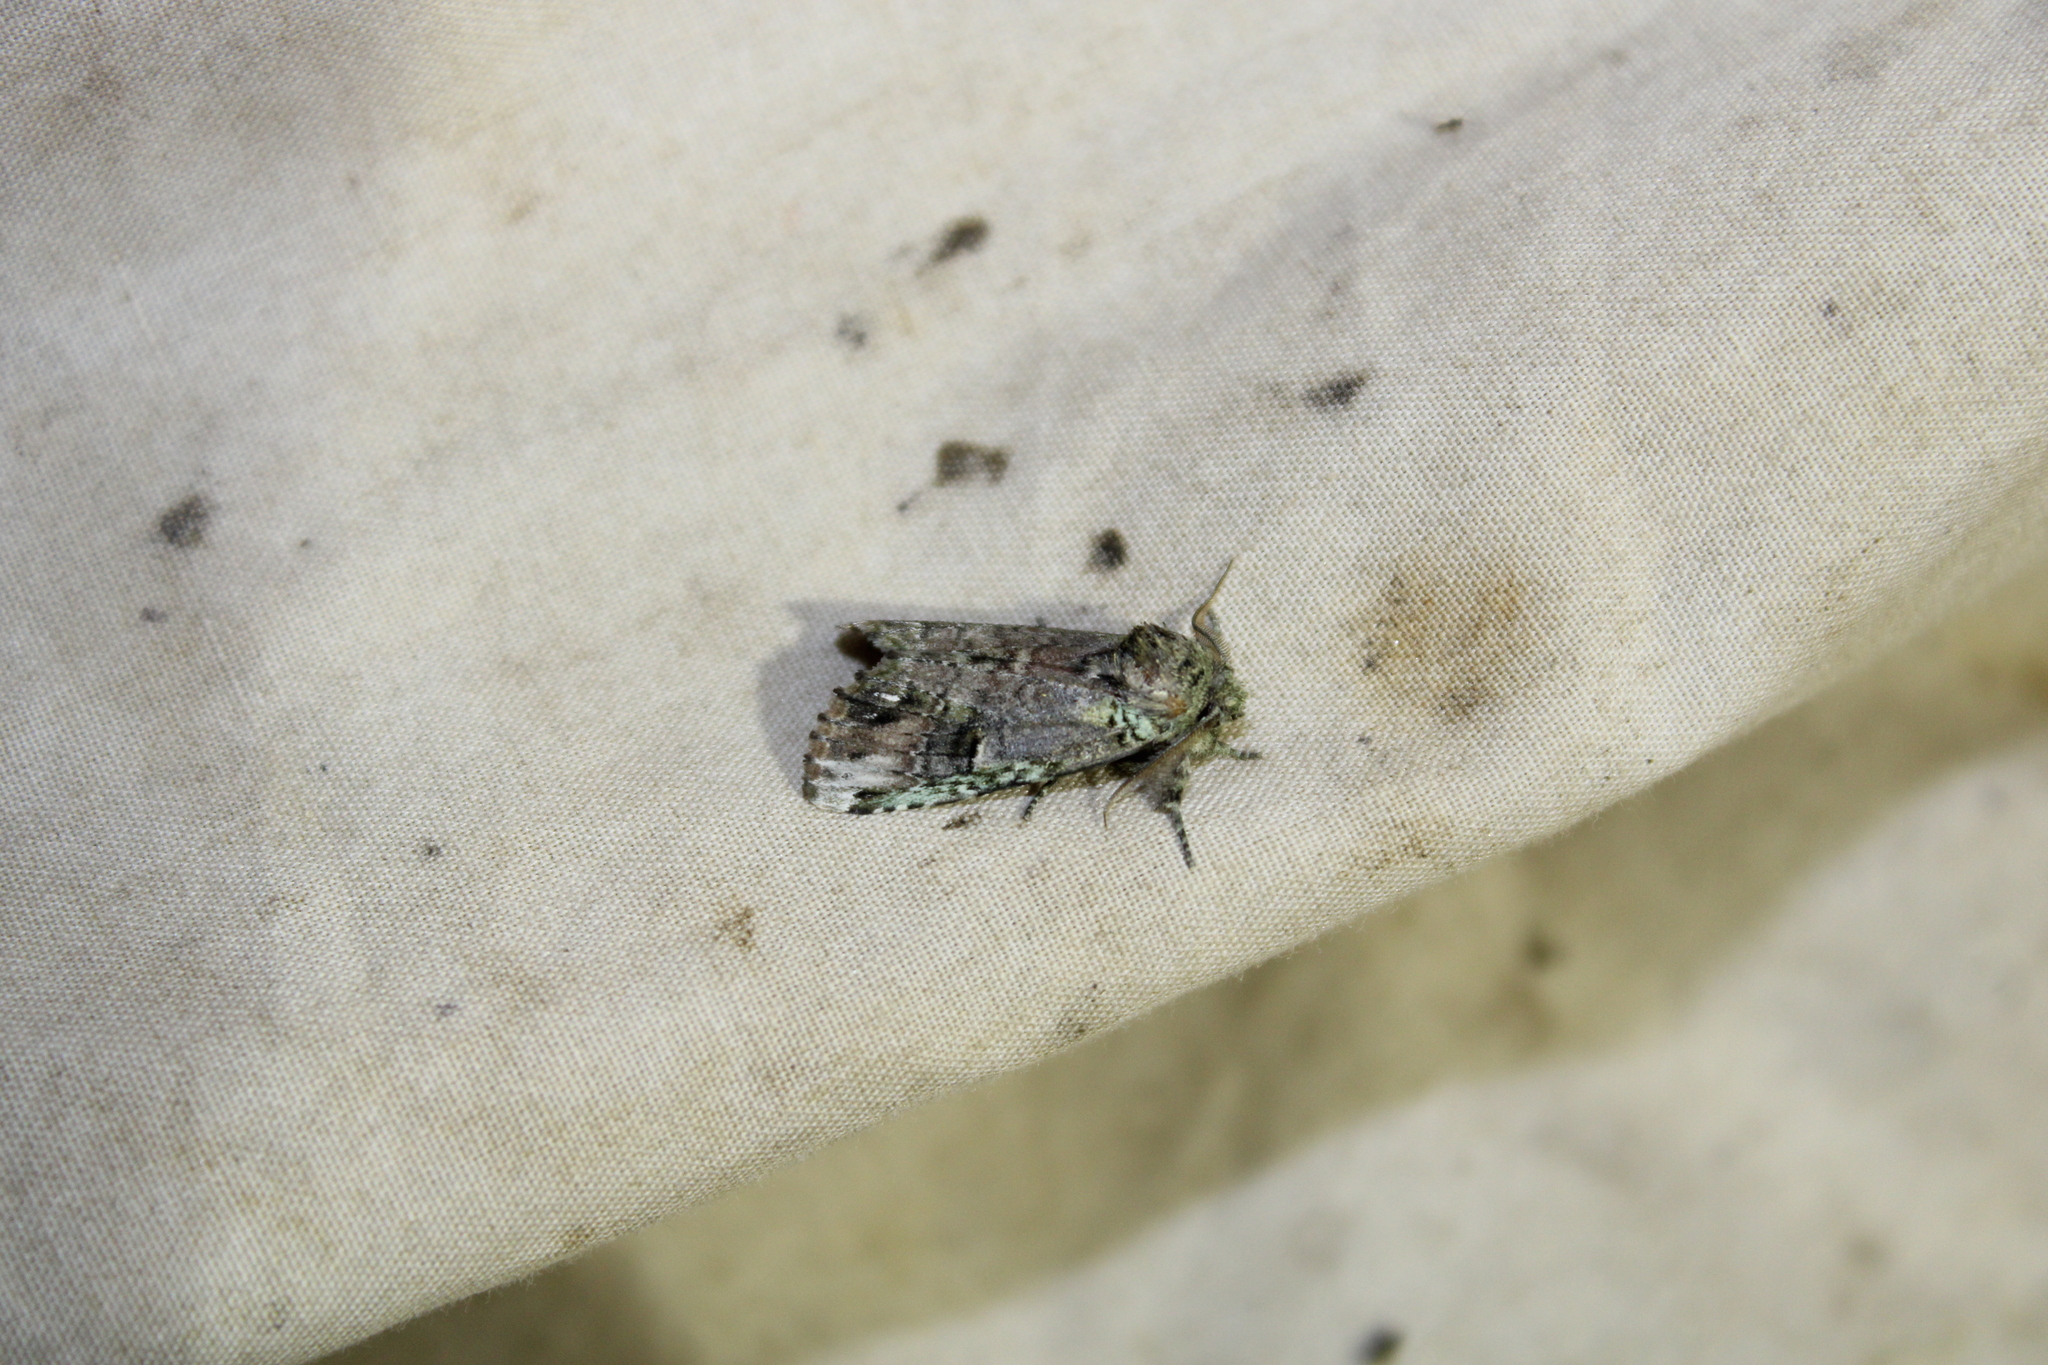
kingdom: Animalia
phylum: Arthropoda
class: Insecta
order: Lepidoptera
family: Notodontidae
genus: Schizura
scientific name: Schizura
